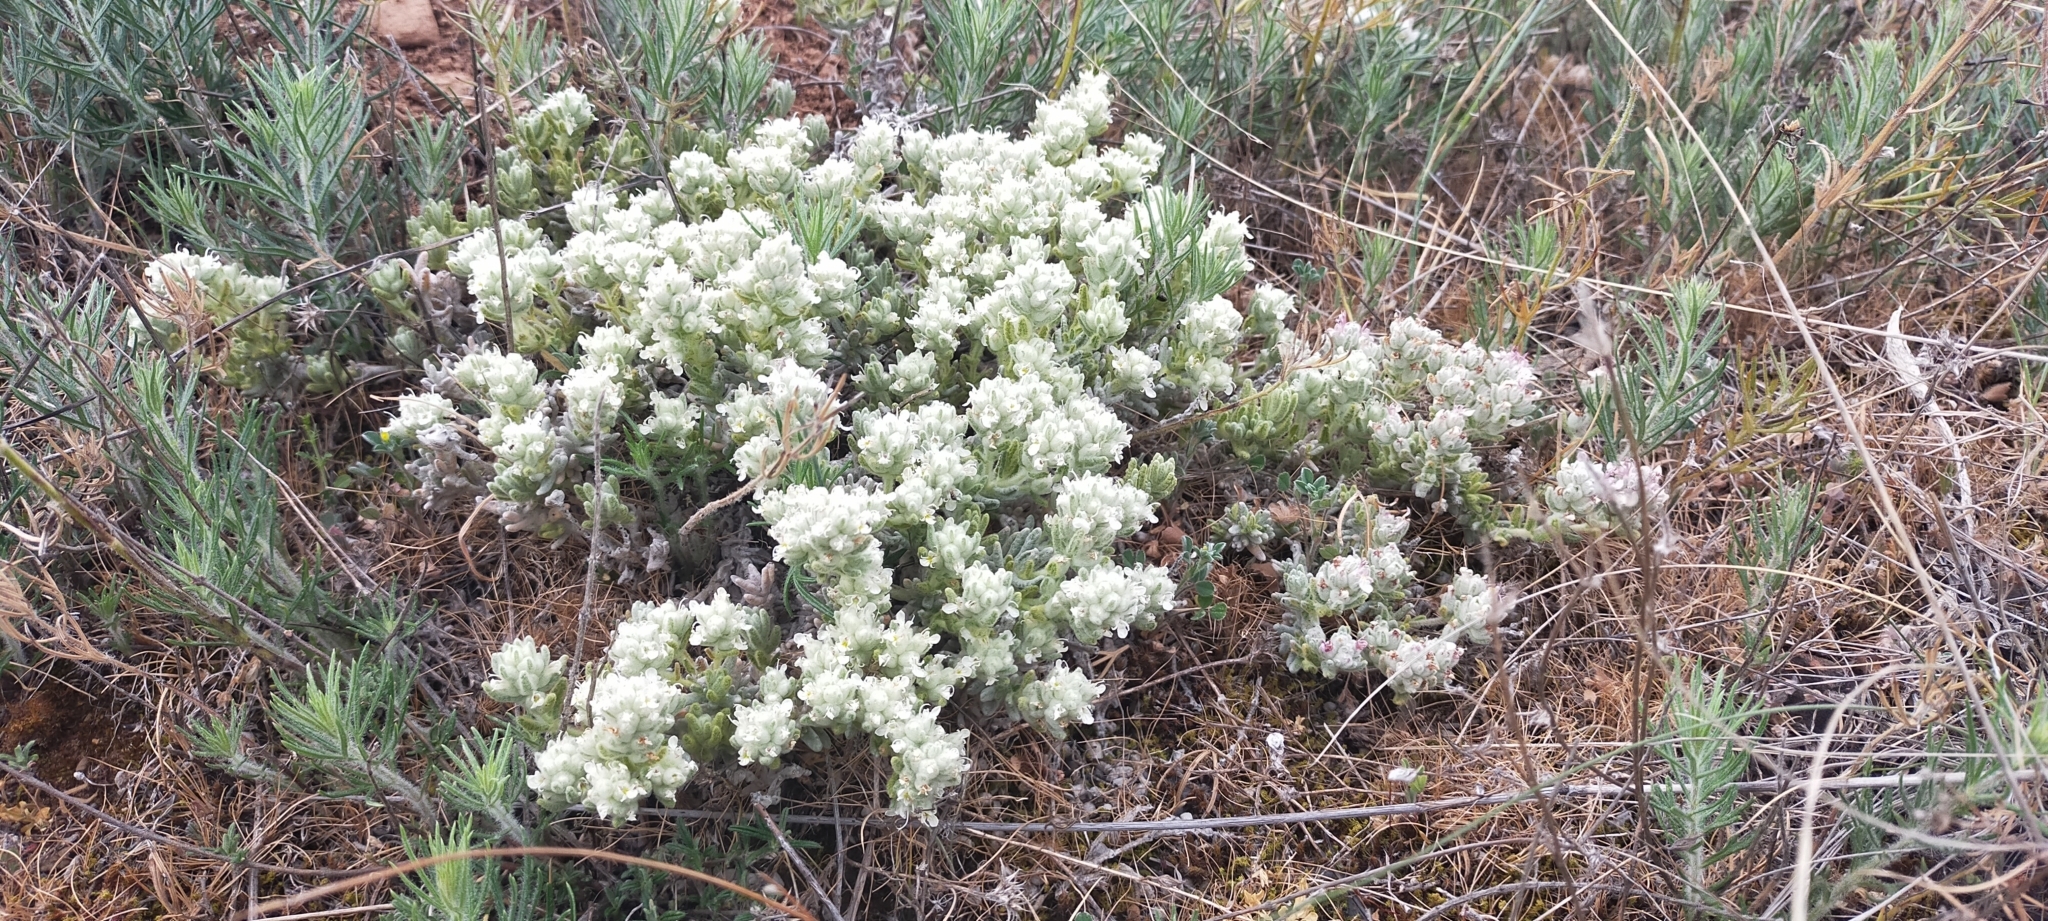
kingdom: Plantae
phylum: Tracheophyta
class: Magnoliopsida
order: Lamiales
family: Lamiaceae
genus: Teucrium
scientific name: Teucrium gnaphalodes
